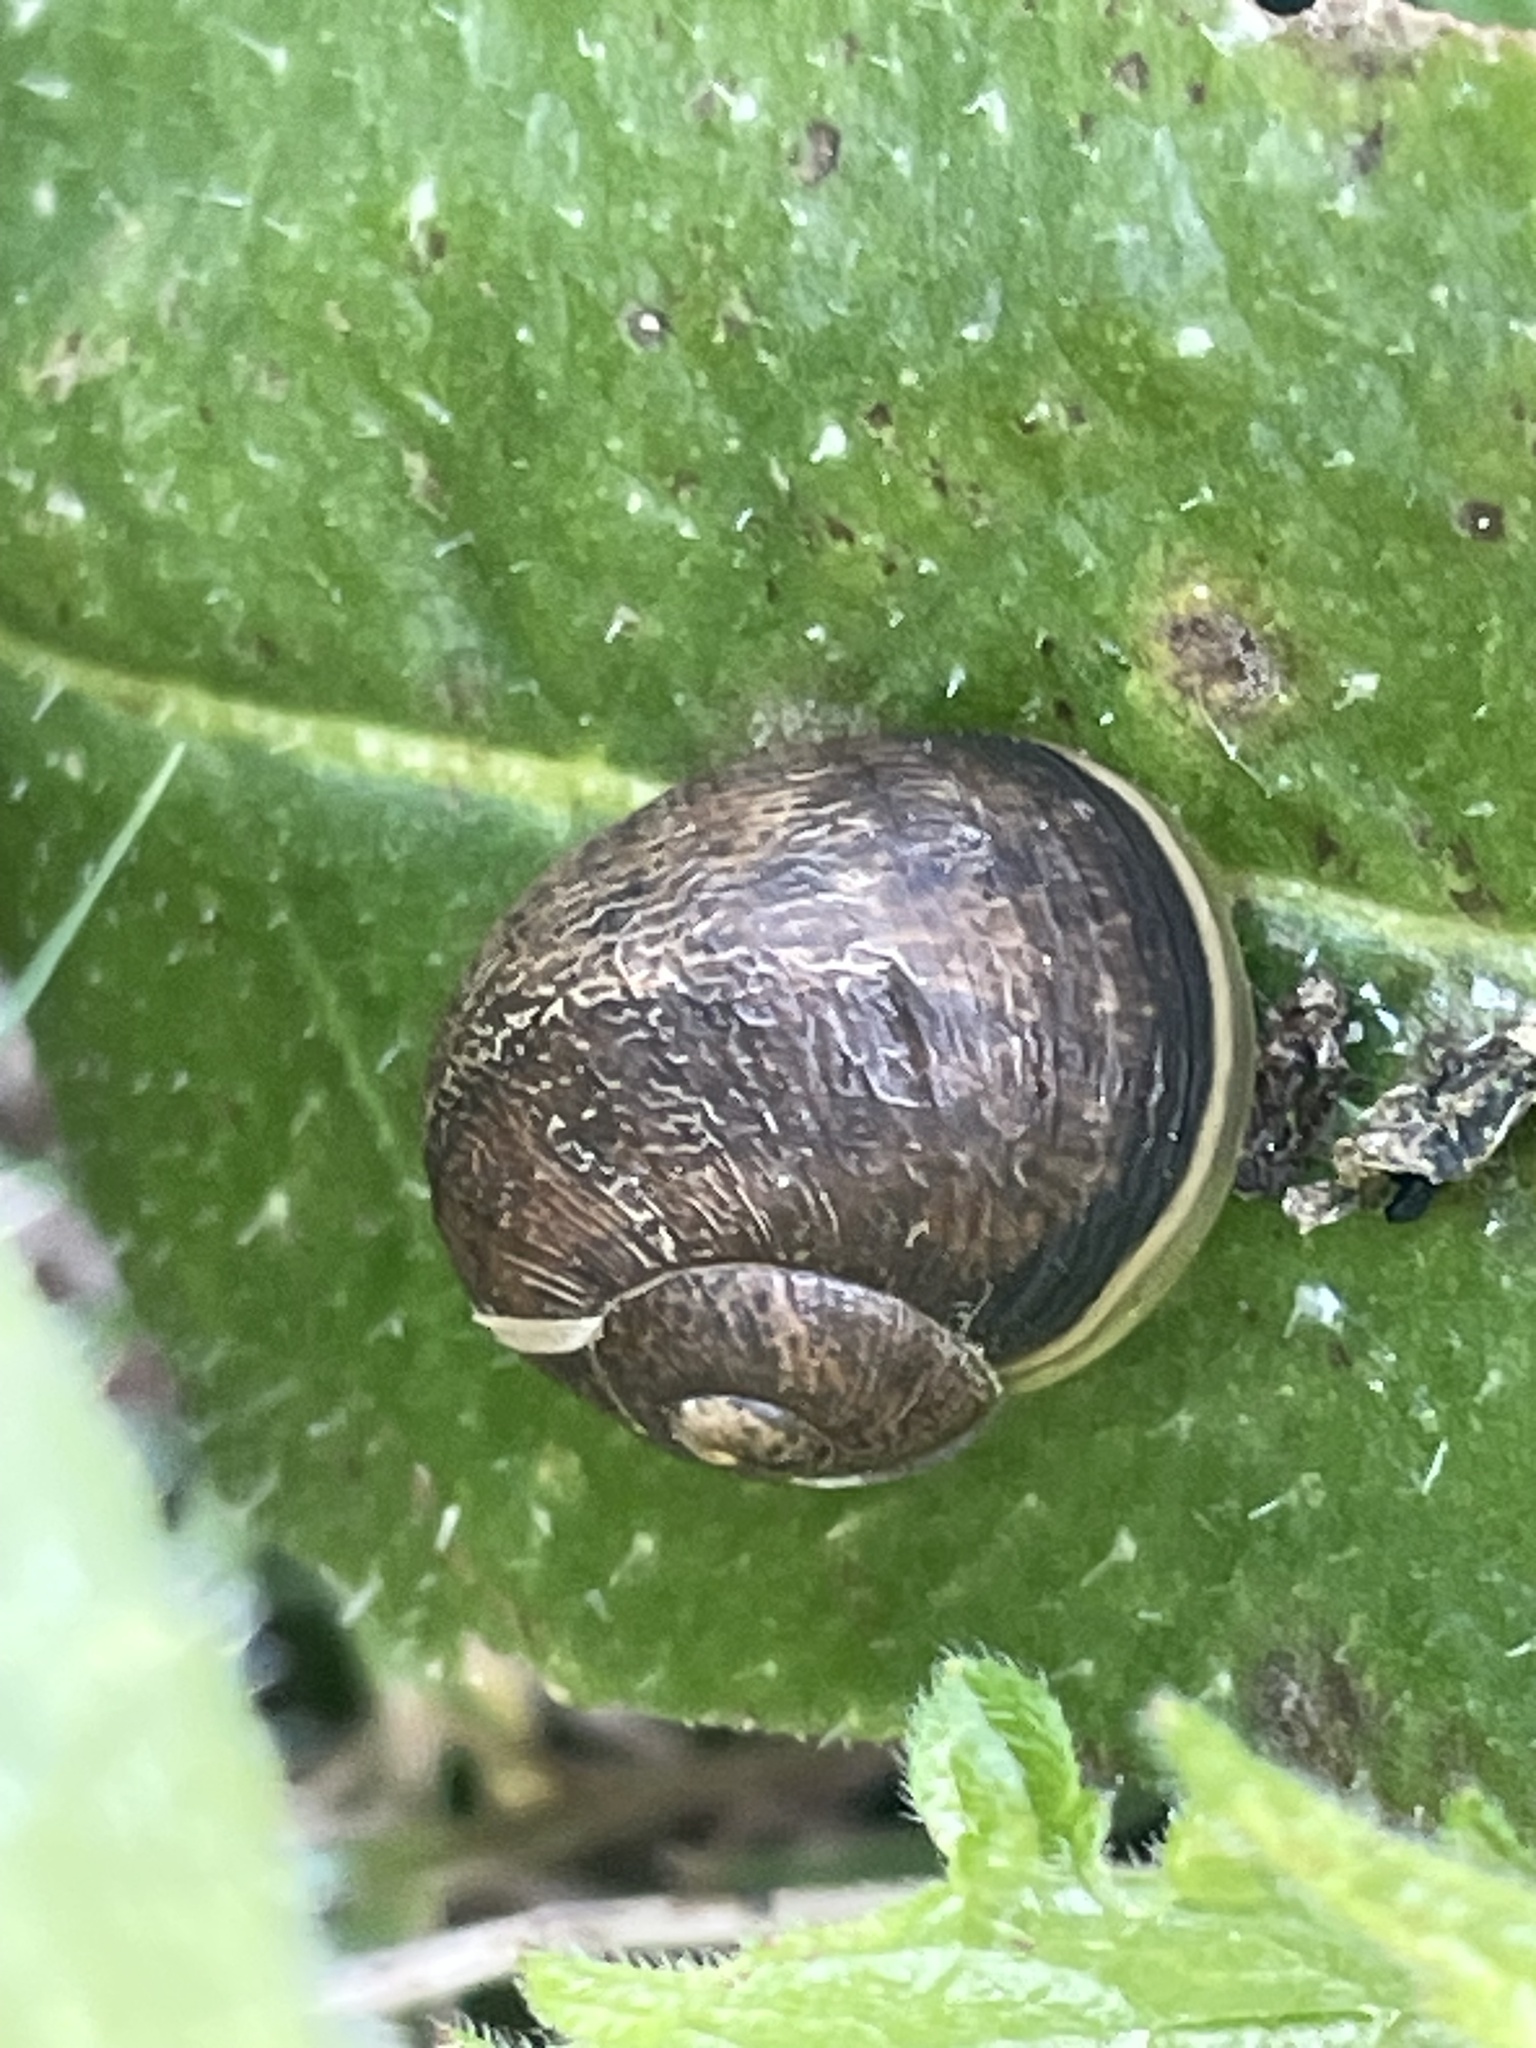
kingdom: Animalia
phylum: Mollusca
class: Gastropoda
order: Stylommatophora
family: Helicidae
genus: Cornu
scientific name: Cornu aspersum
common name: Brown garden snail
